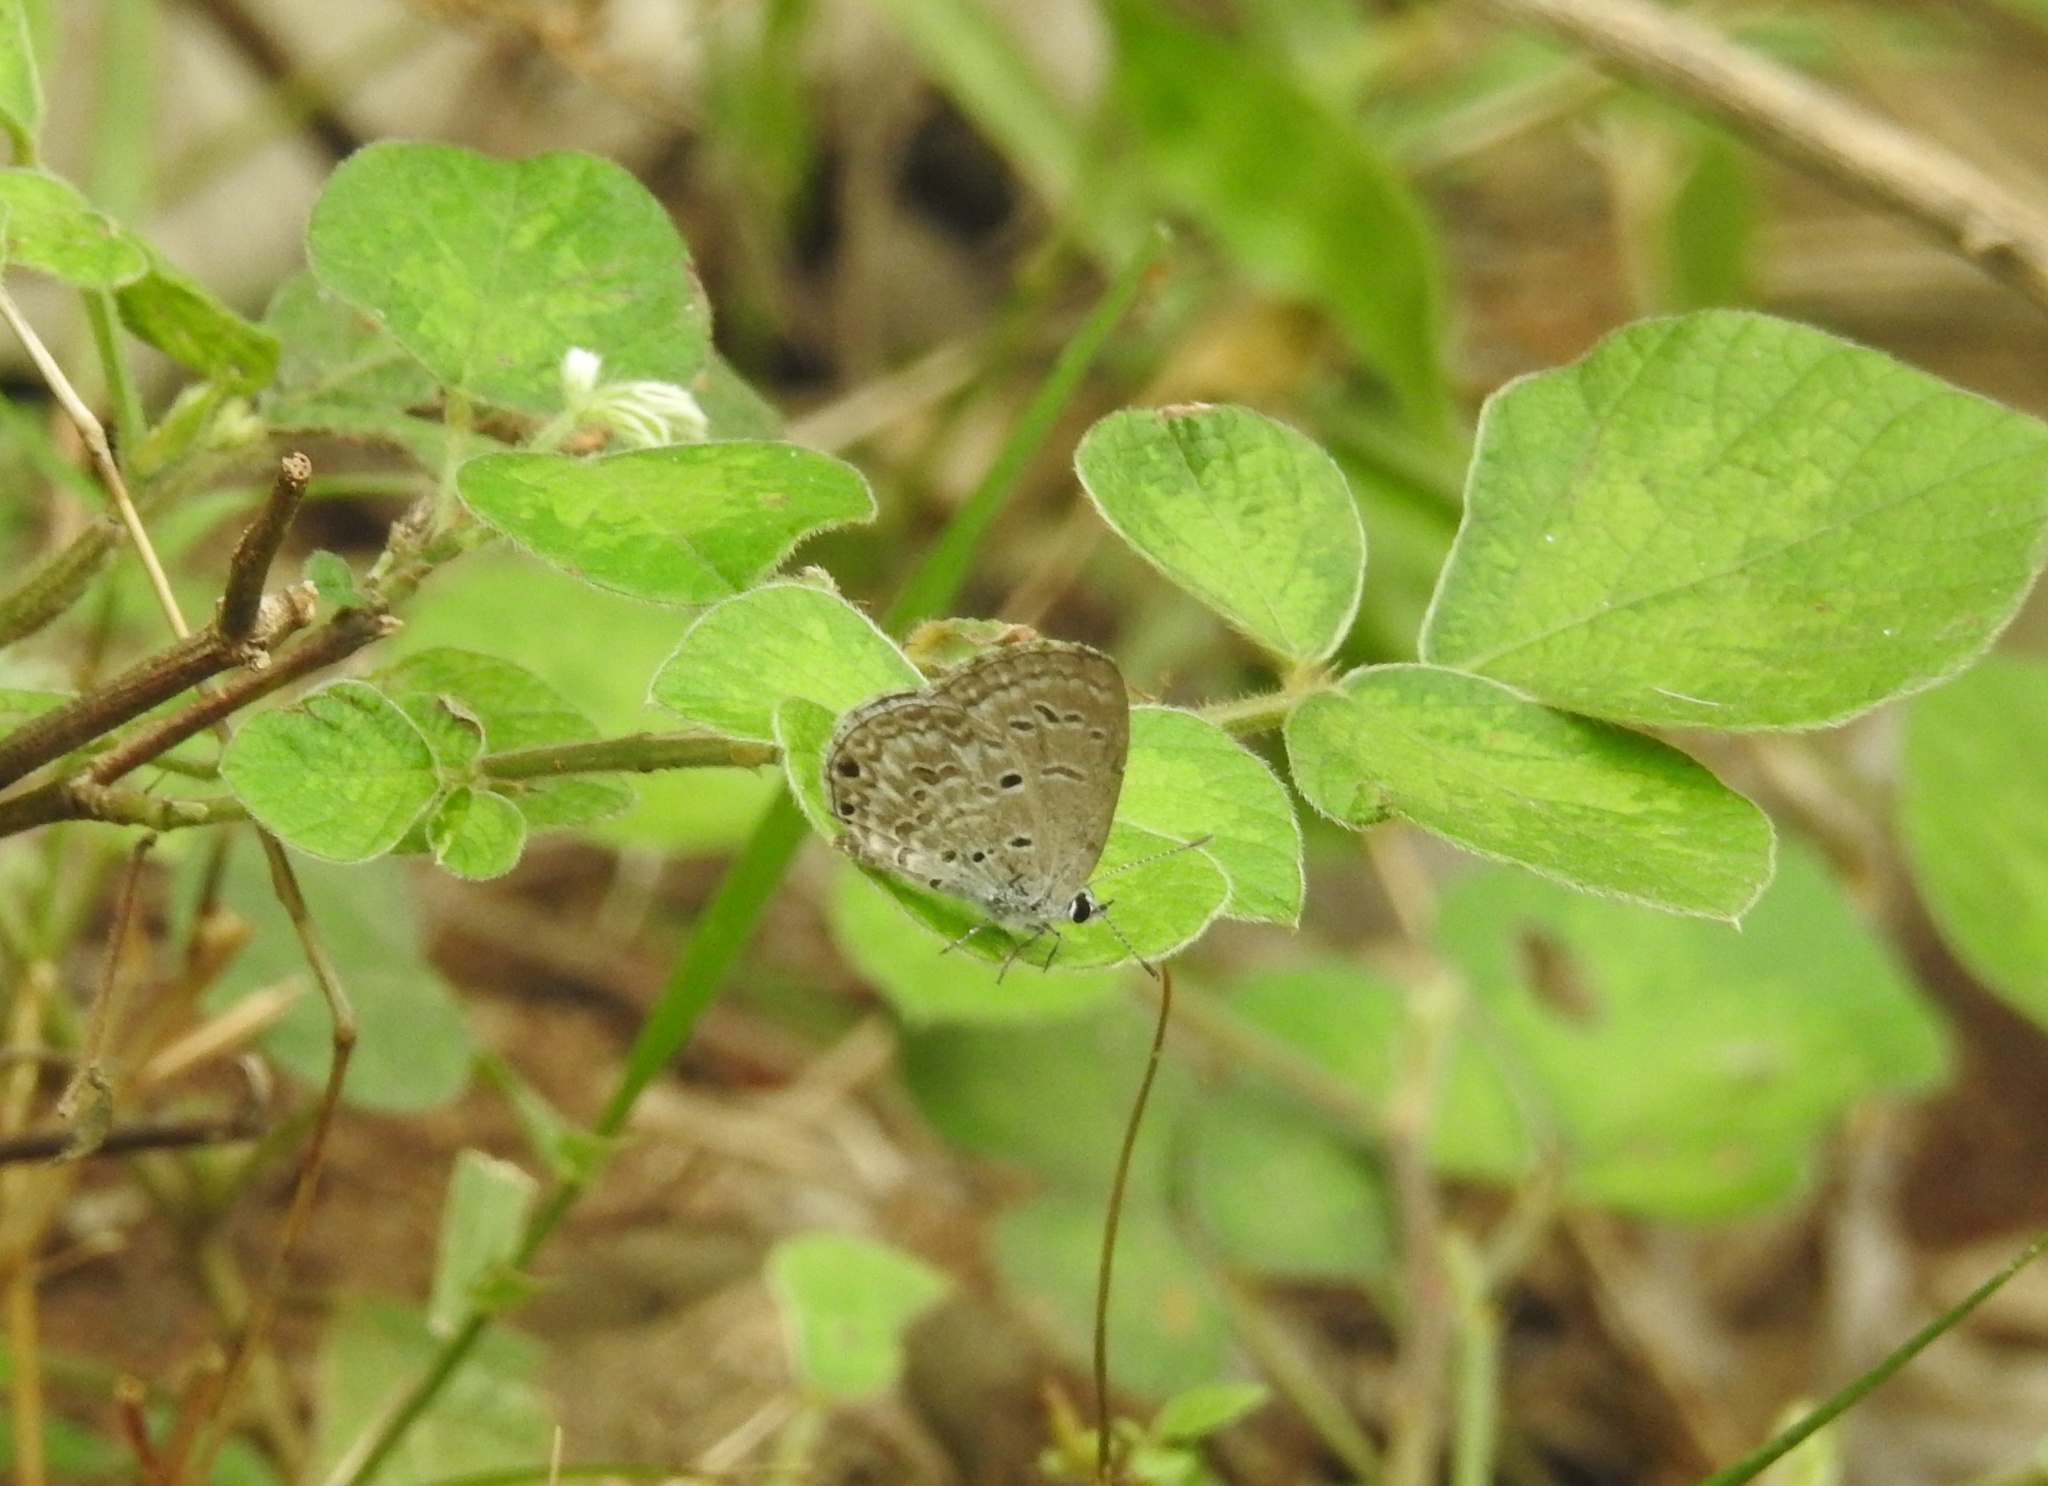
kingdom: Animalia
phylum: Arthropoda
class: Insecta
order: Lepidoptera
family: Lycaenidae
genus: Chilades
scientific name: Chilades laius
